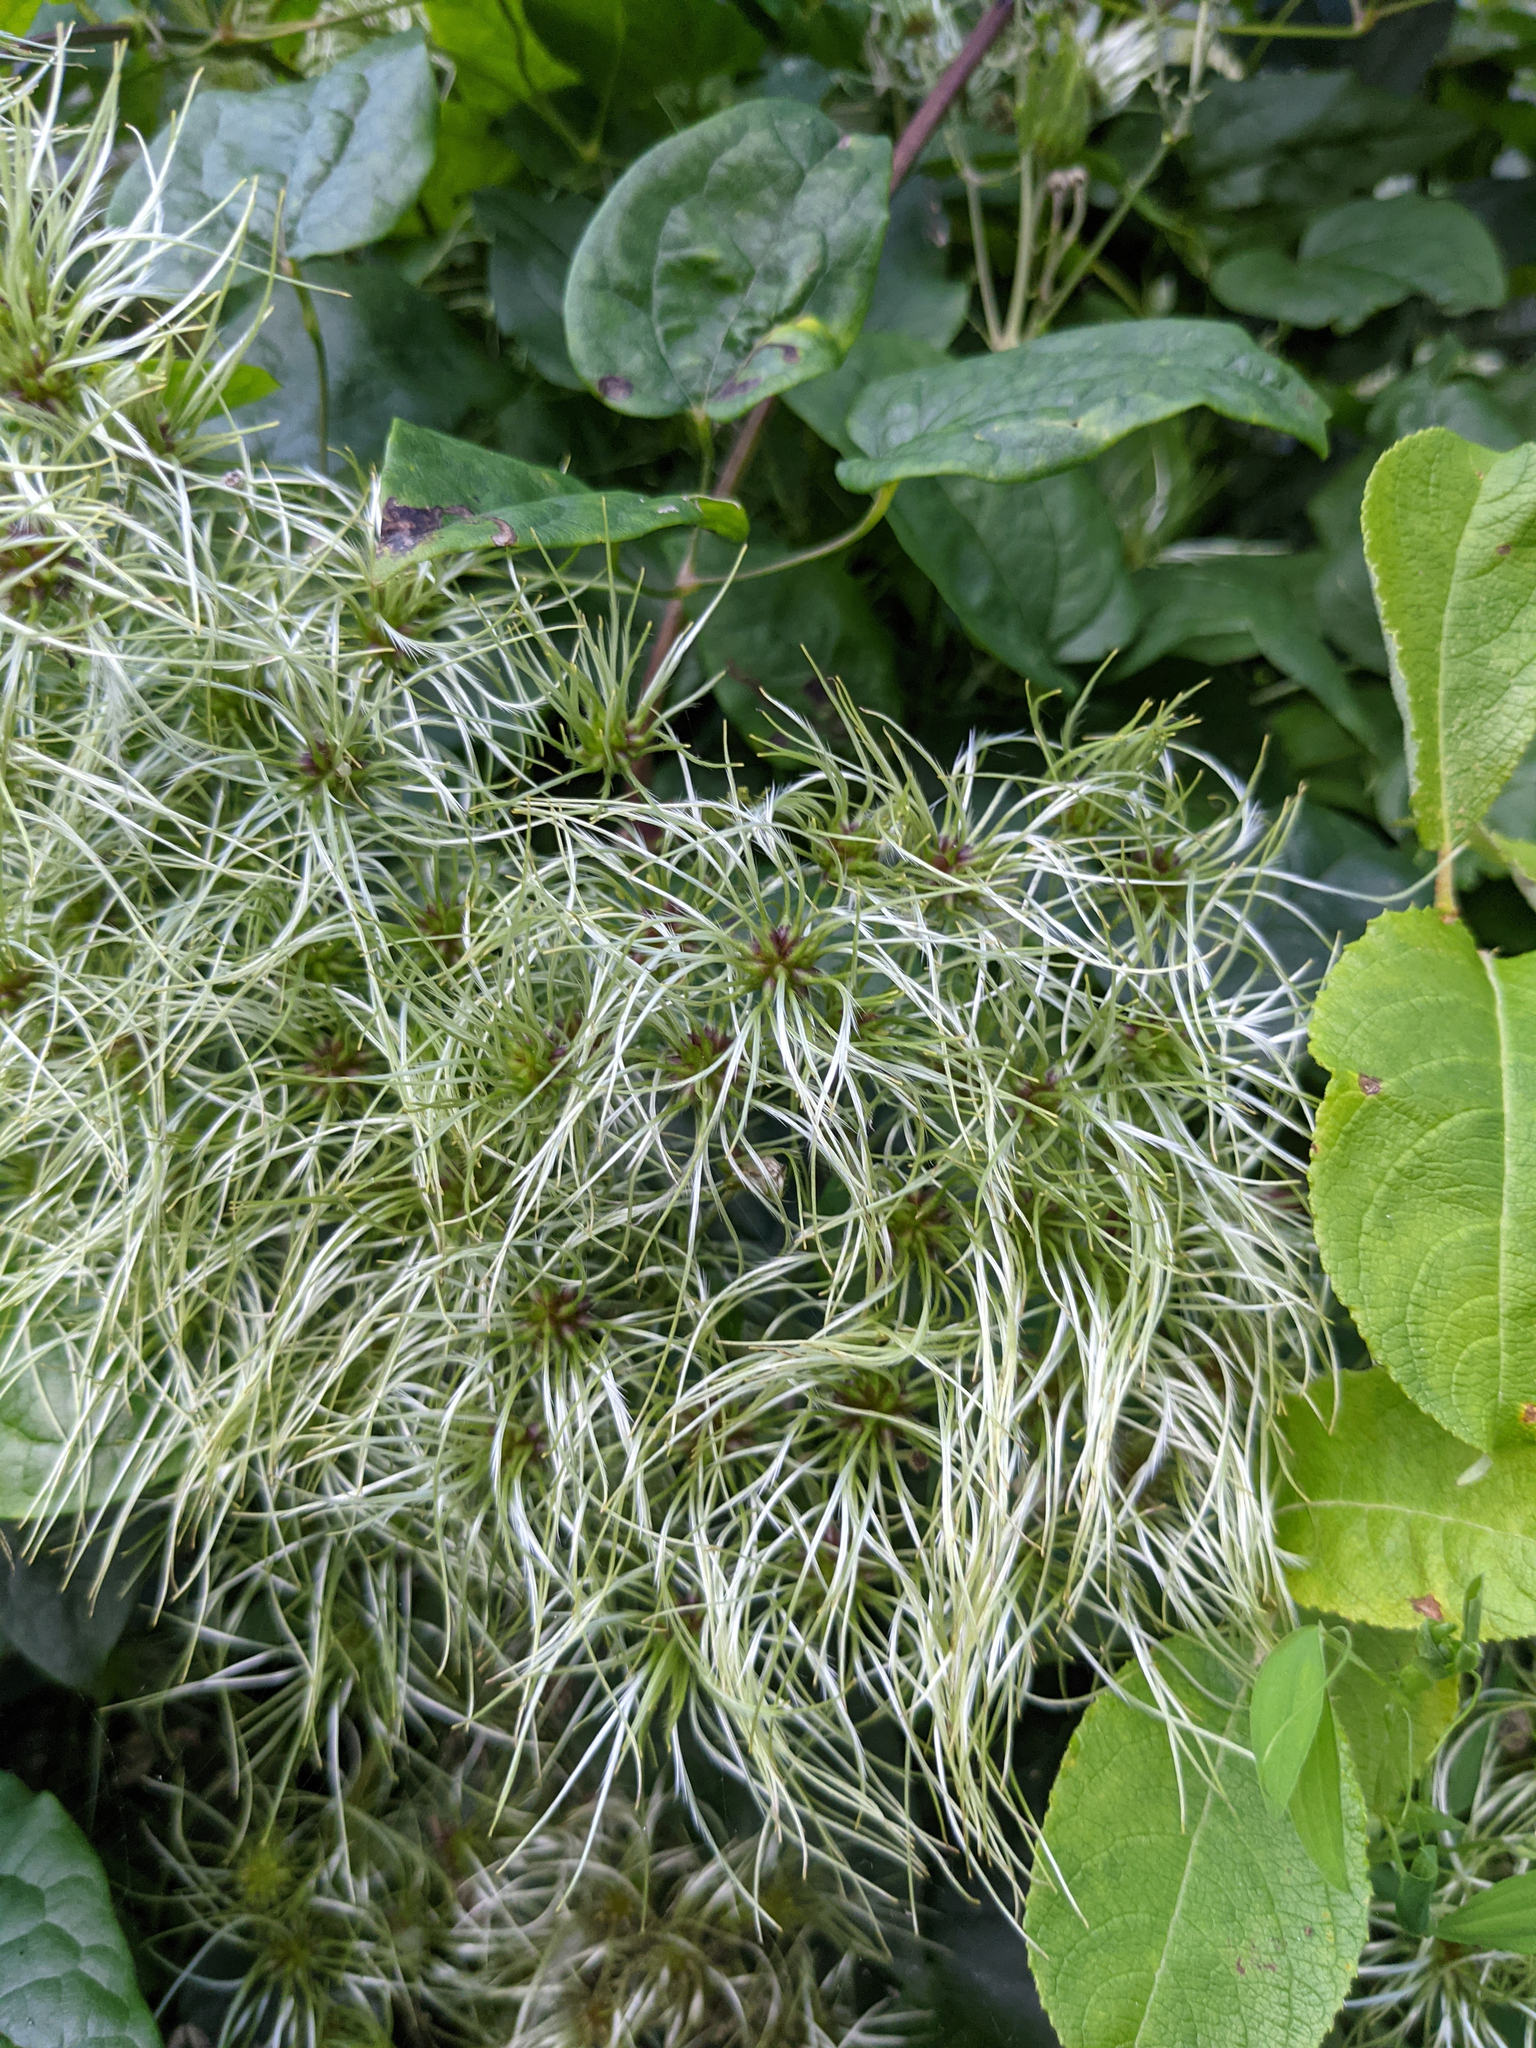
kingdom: Plantae
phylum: Tracheophyta
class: Magnoliopsida
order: Ranunculales
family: Ranunculaceae
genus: Clematis
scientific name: Clematis vitalba
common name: Evergreen clematis
